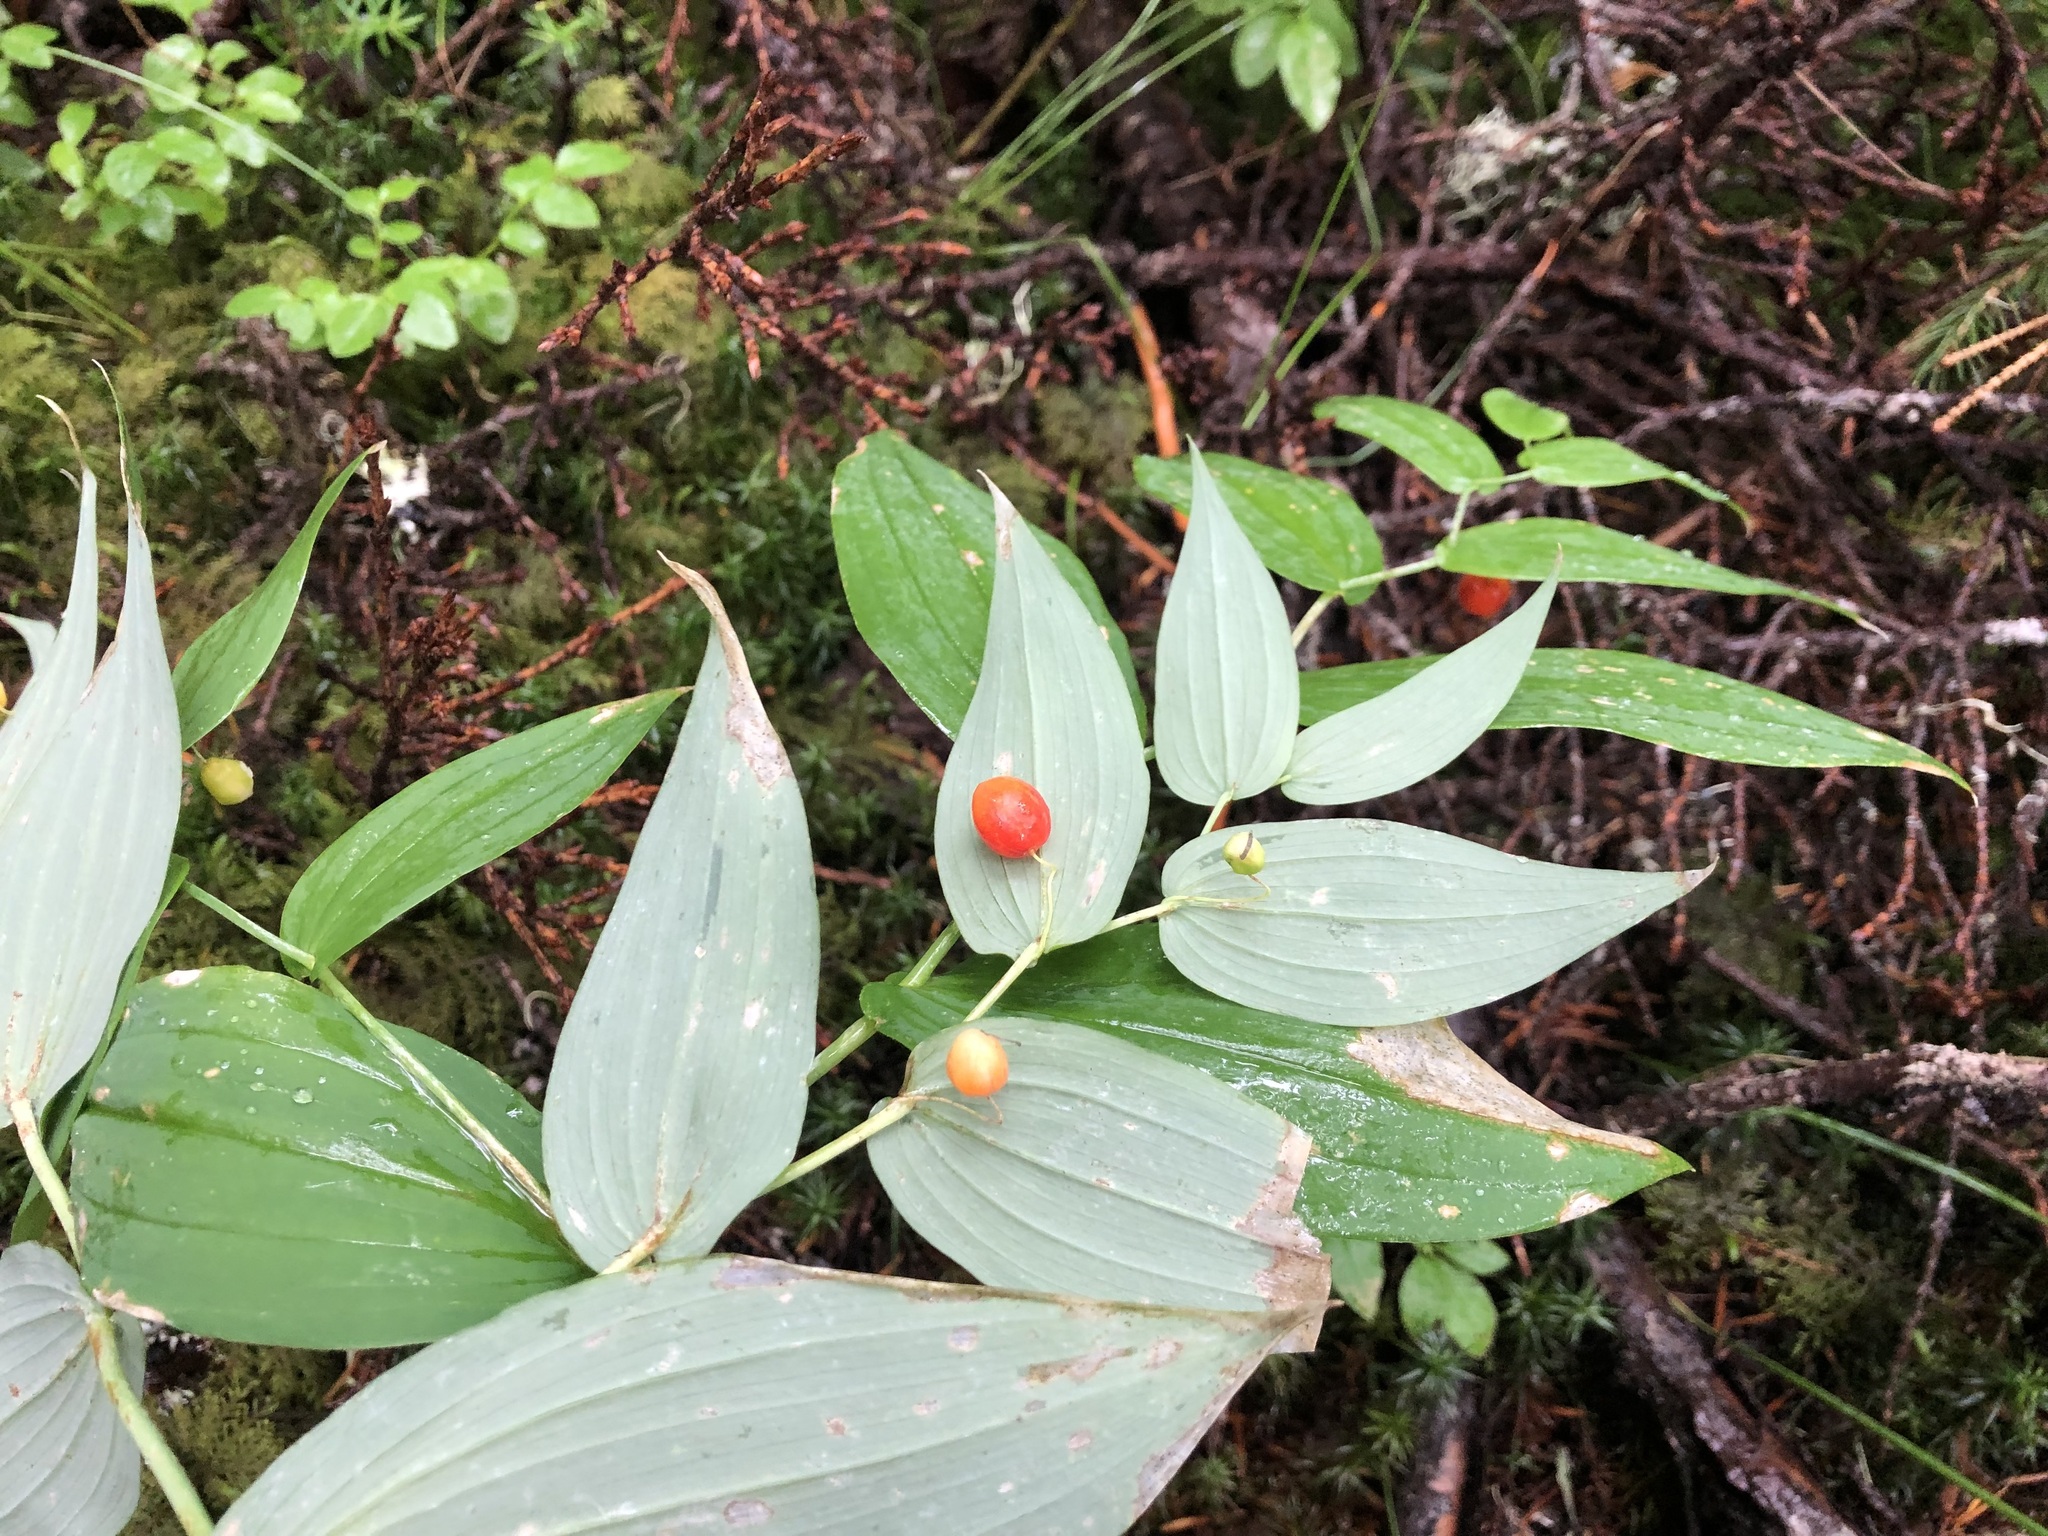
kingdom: Plantae
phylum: Tracheophyta
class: Liliopsida
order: Liliales
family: Liliaceae
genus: Streptopus
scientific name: Streptopus amplexifolius
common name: Clasp twisted stalk
